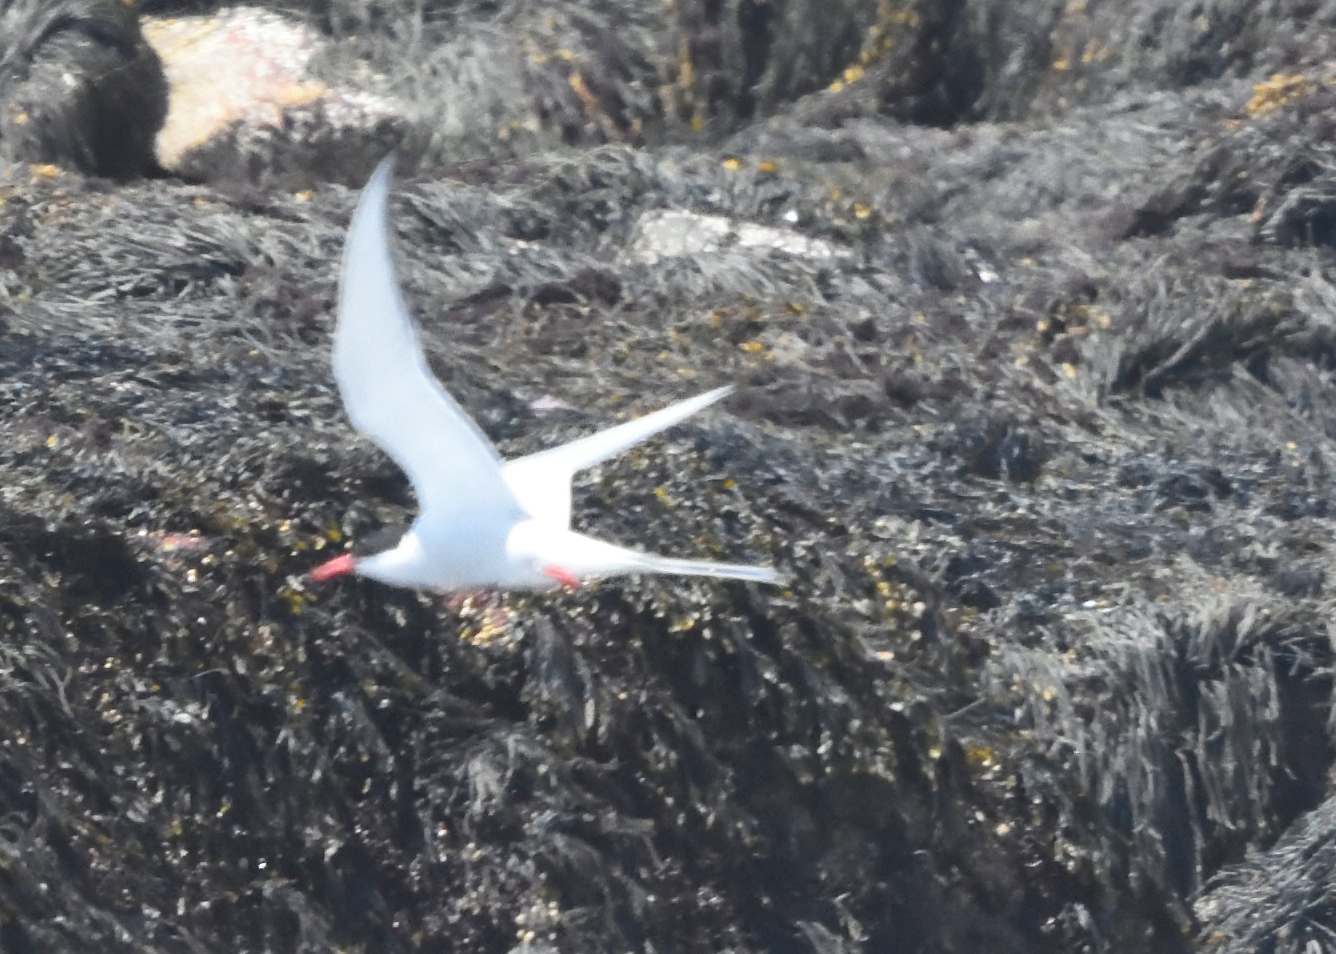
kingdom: Animalia
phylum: Chordata
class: Aves
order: Charadriiformes
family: Laridae
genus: Sterna
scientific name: Sterna paradisaea
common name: Arctic tern
